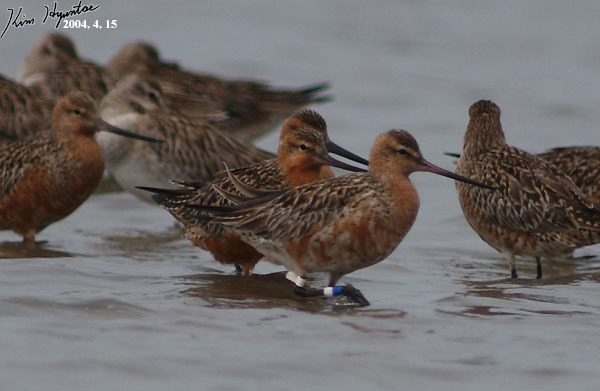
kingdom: Animalia
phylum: Chordata
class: Aves
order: Charadriiformes
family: Scolopacidae
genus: Limosa
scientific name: Limosa lapponica
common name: Bar-tailed godwit
